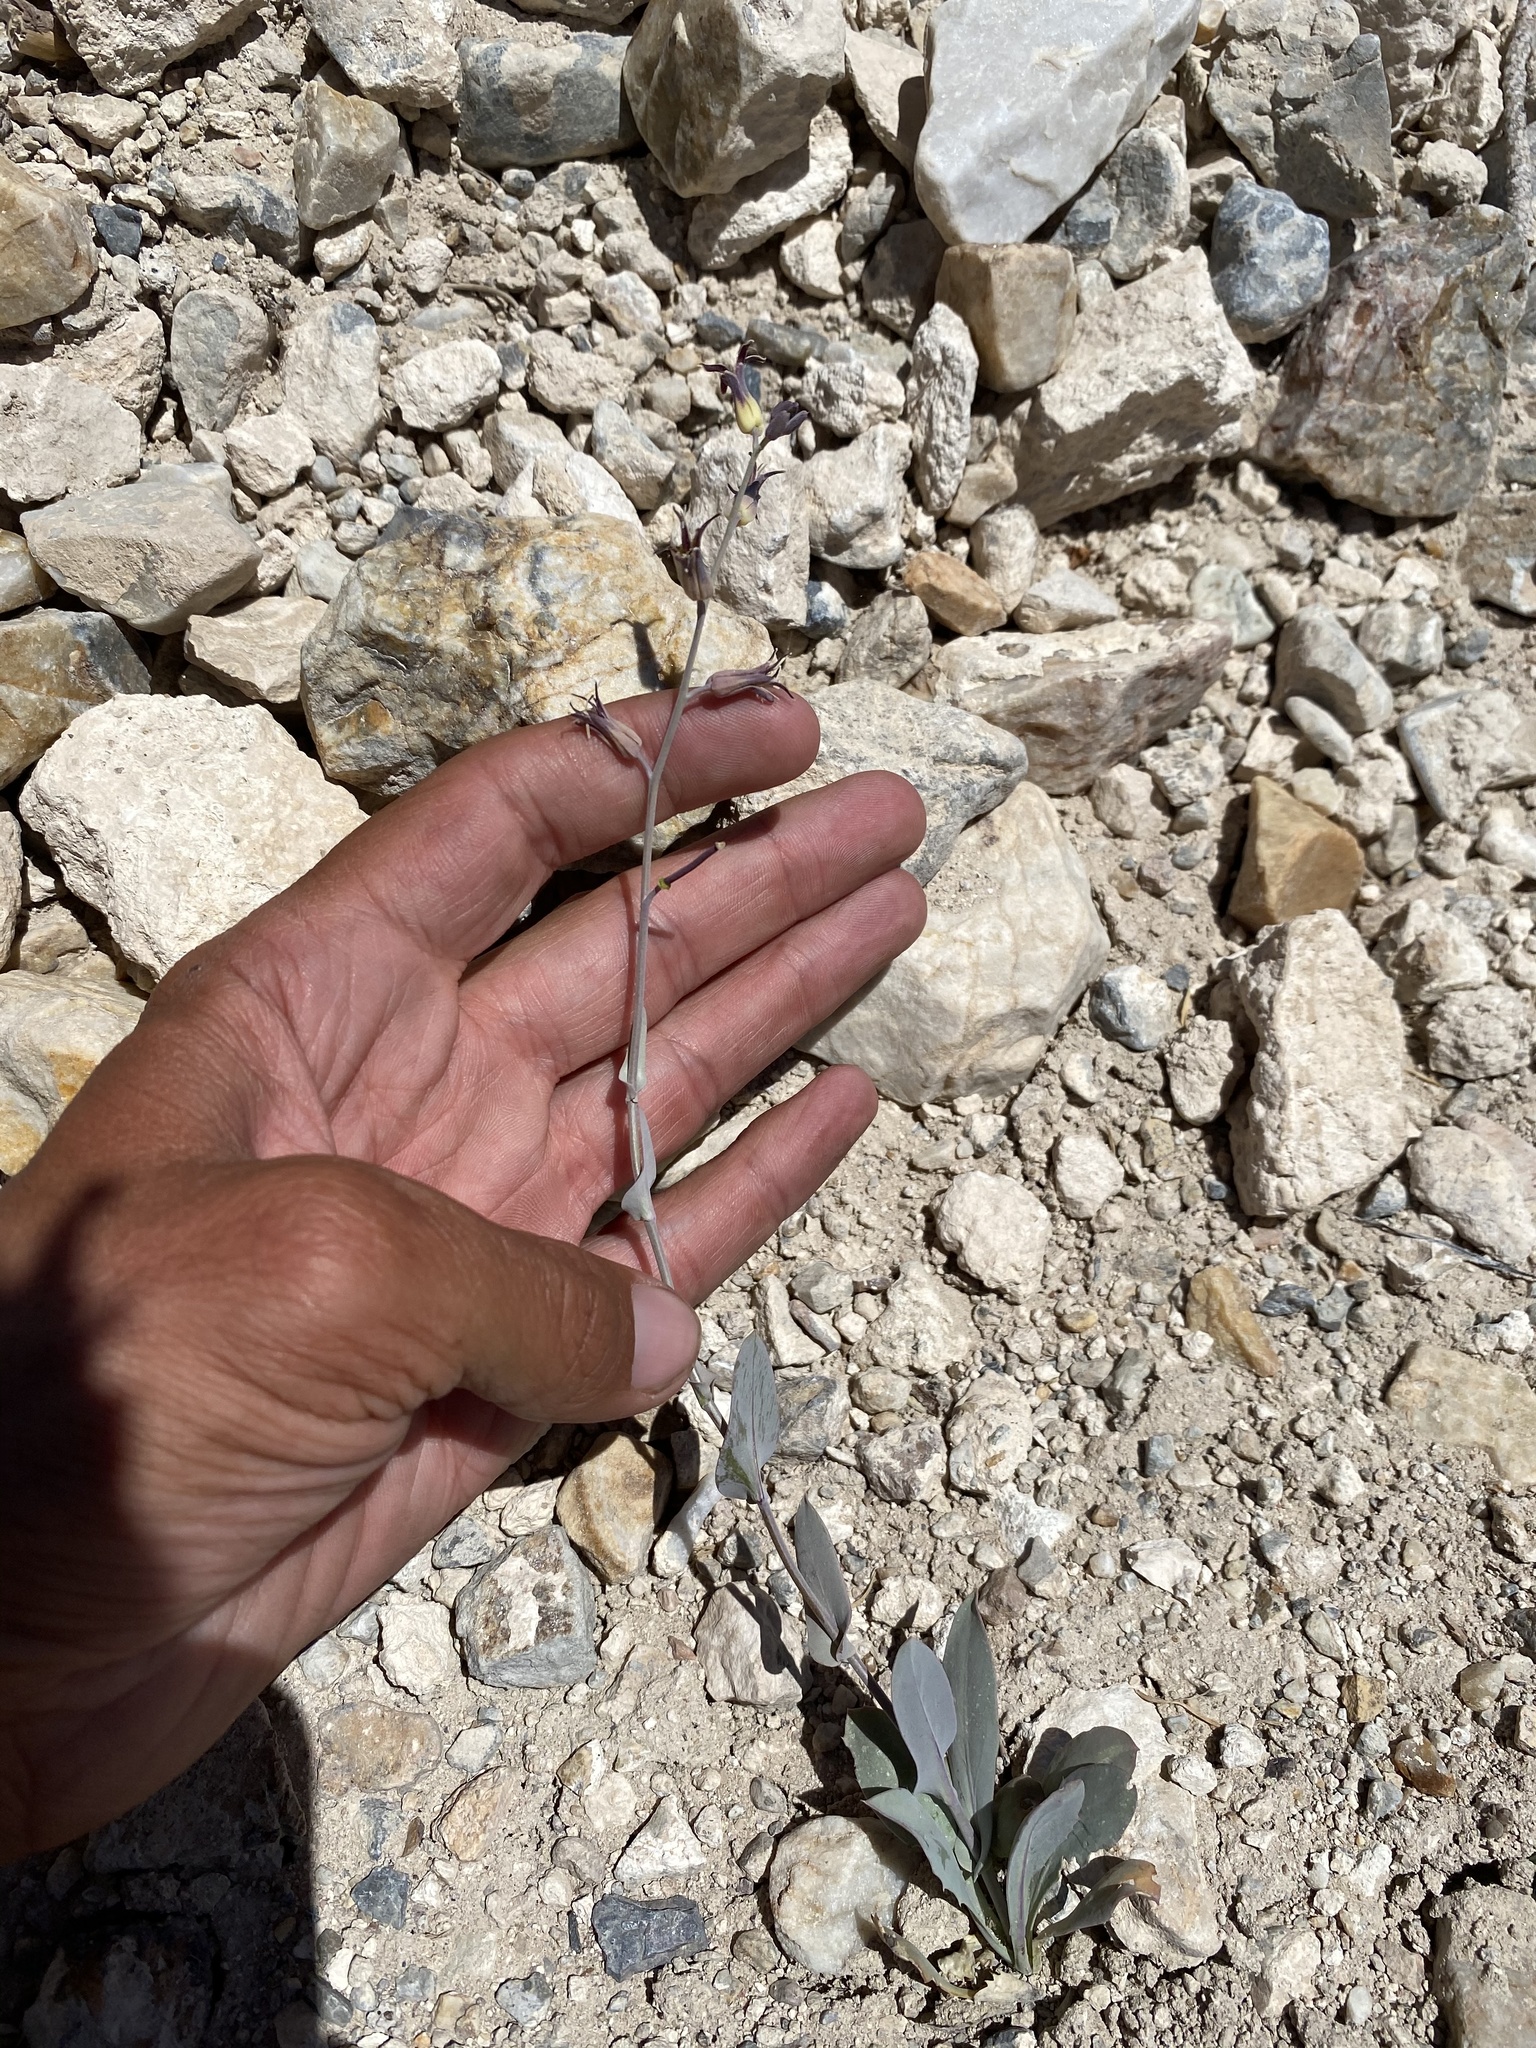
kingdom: Plantae
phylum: Tracheophyta
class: Magnoliopsida
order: Brassicales
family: Brassicaceae
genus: Streptanthus
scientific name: Streptanthus cordatus
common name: Heart-leaf jewel-flower
